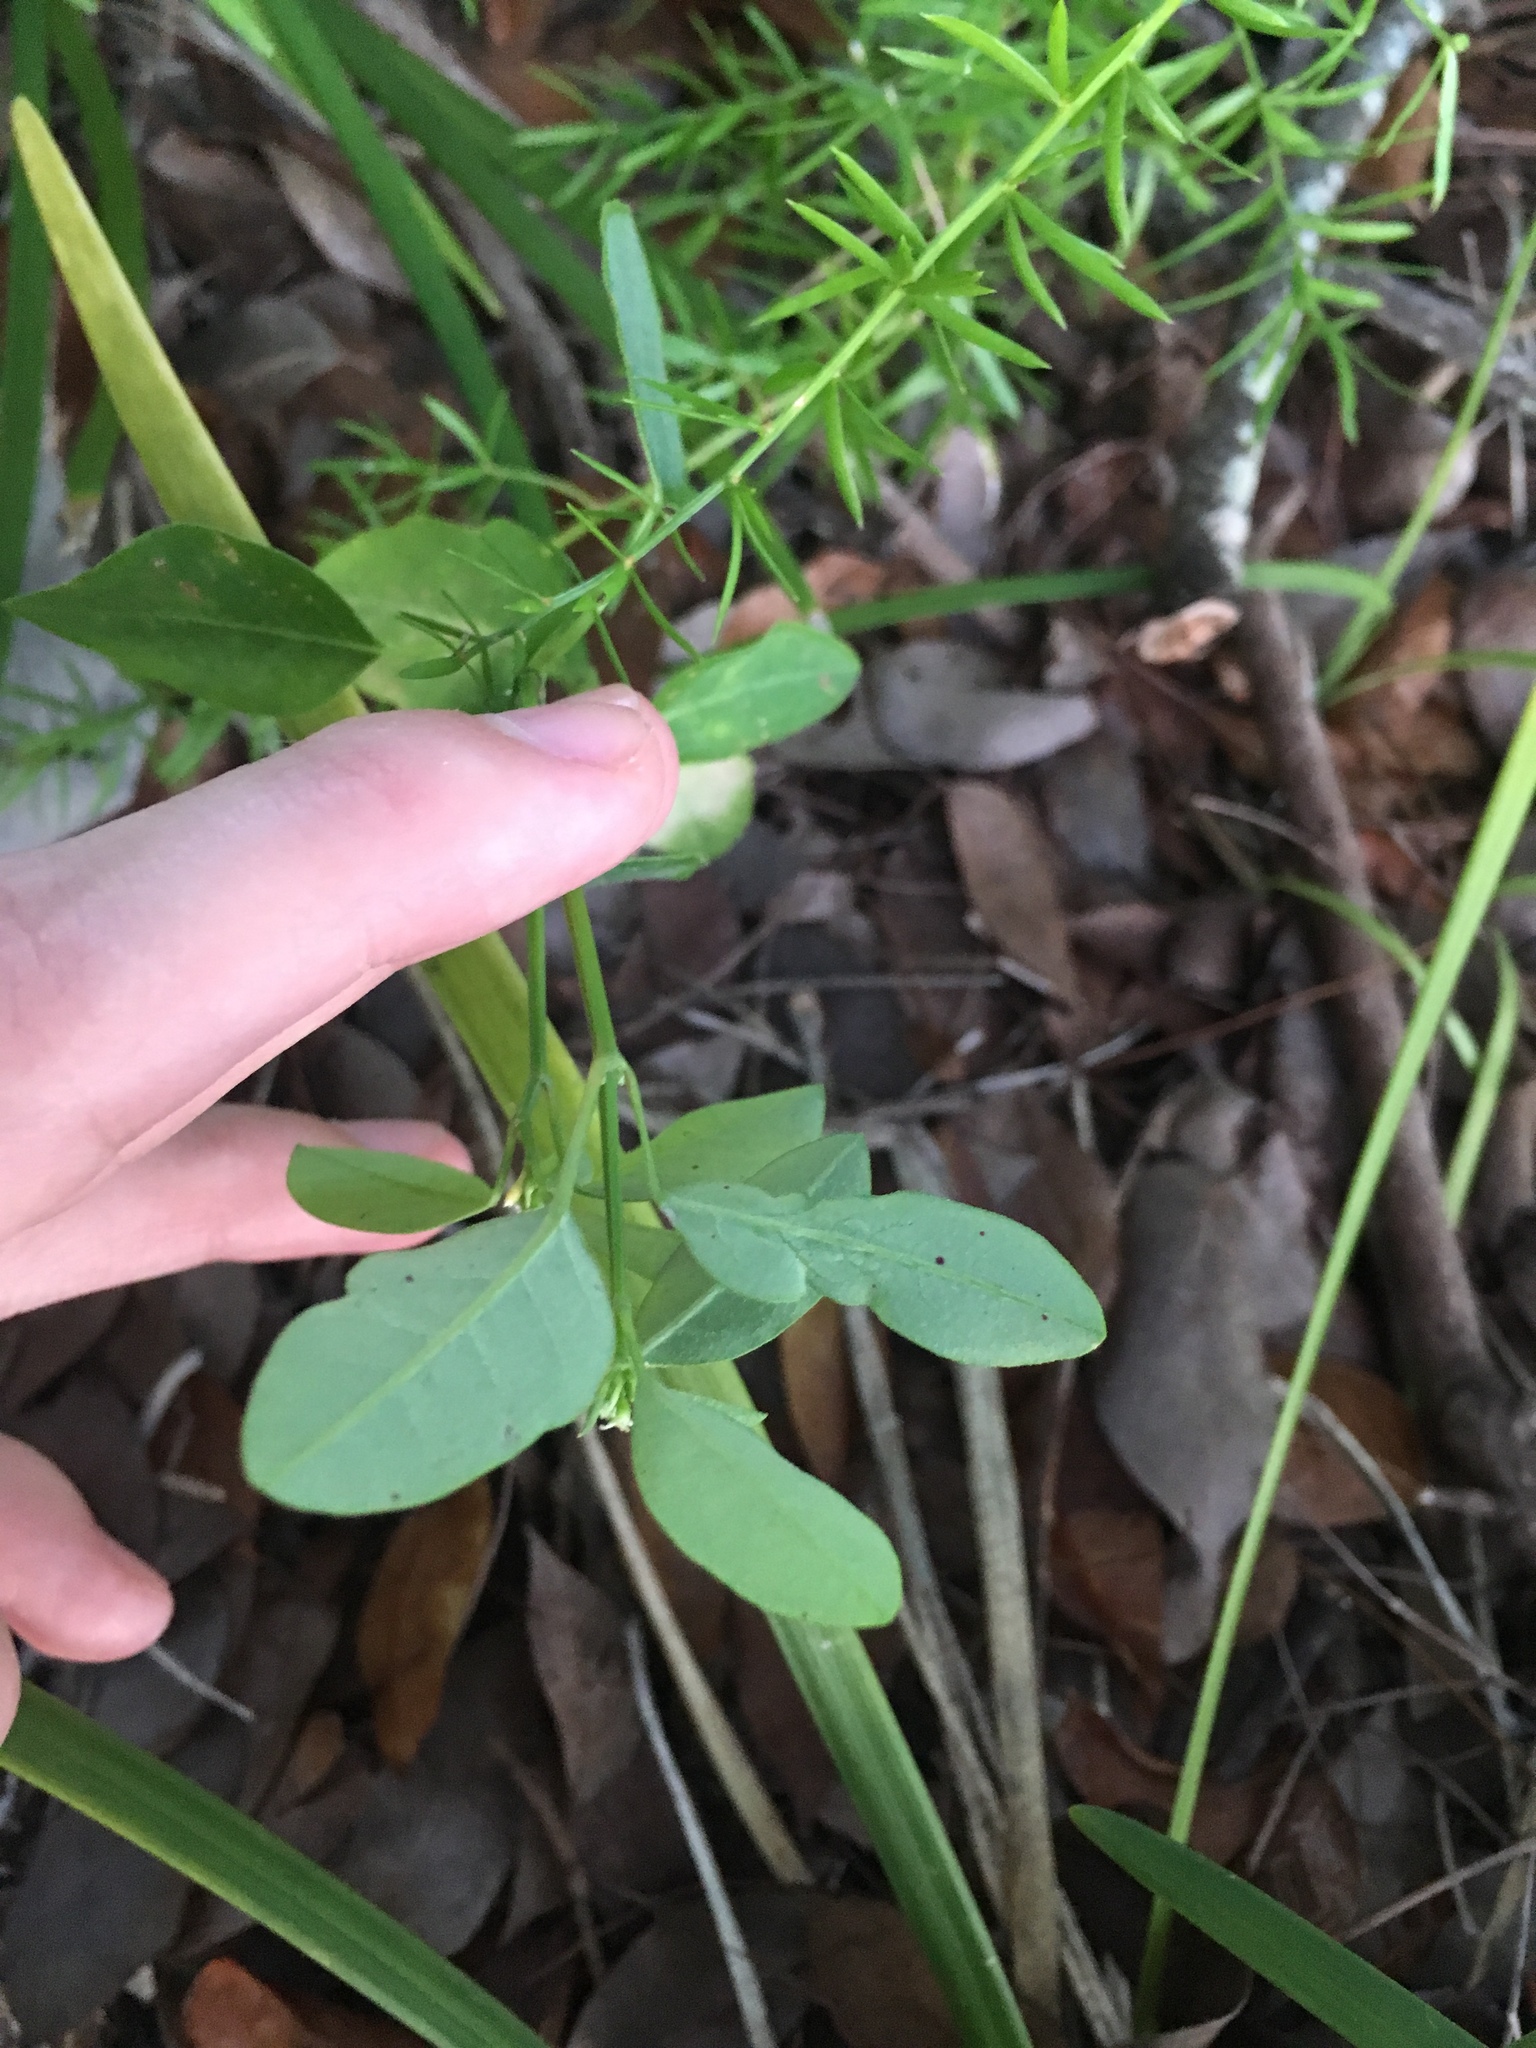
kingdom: Plantae
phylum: Tracheophyta
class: Magnoliopsida
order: Malpighiales
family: Euphorbiaceae
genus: Euphorbia
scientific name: Euphorbia graminea
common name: Grassleaf spurge
